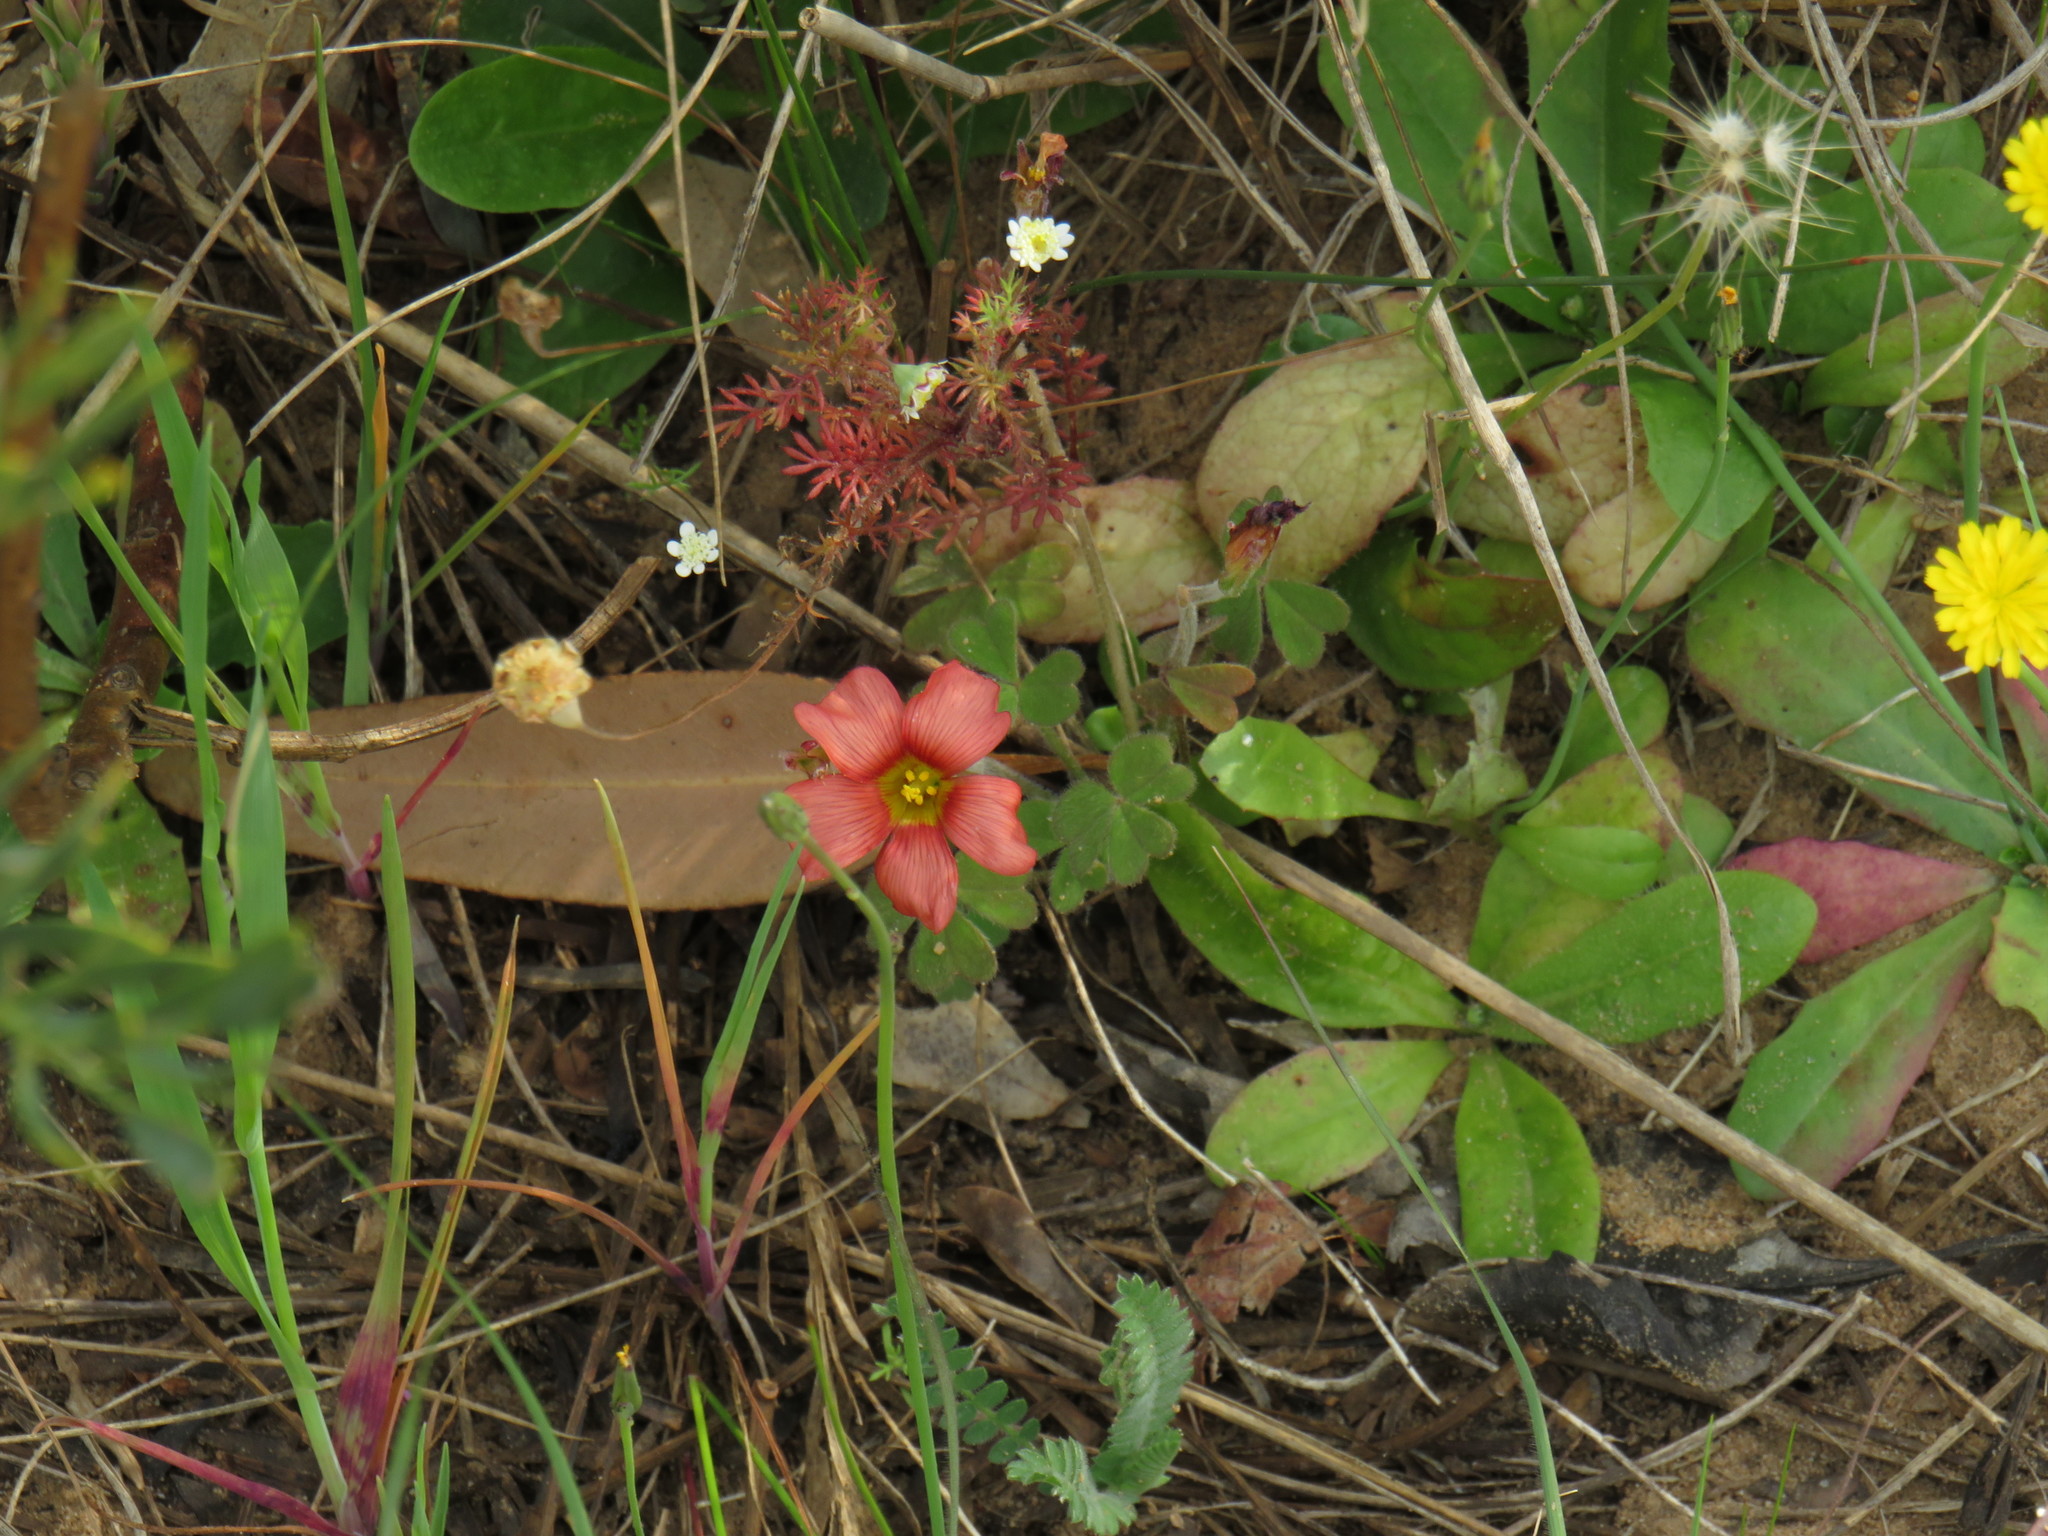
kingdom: Plantae
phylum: Tracheophyta
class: Magnoliopsida
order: Oxalidales
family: Oxalidaceae
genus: Oxalis
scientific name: Oxalis obtusa
